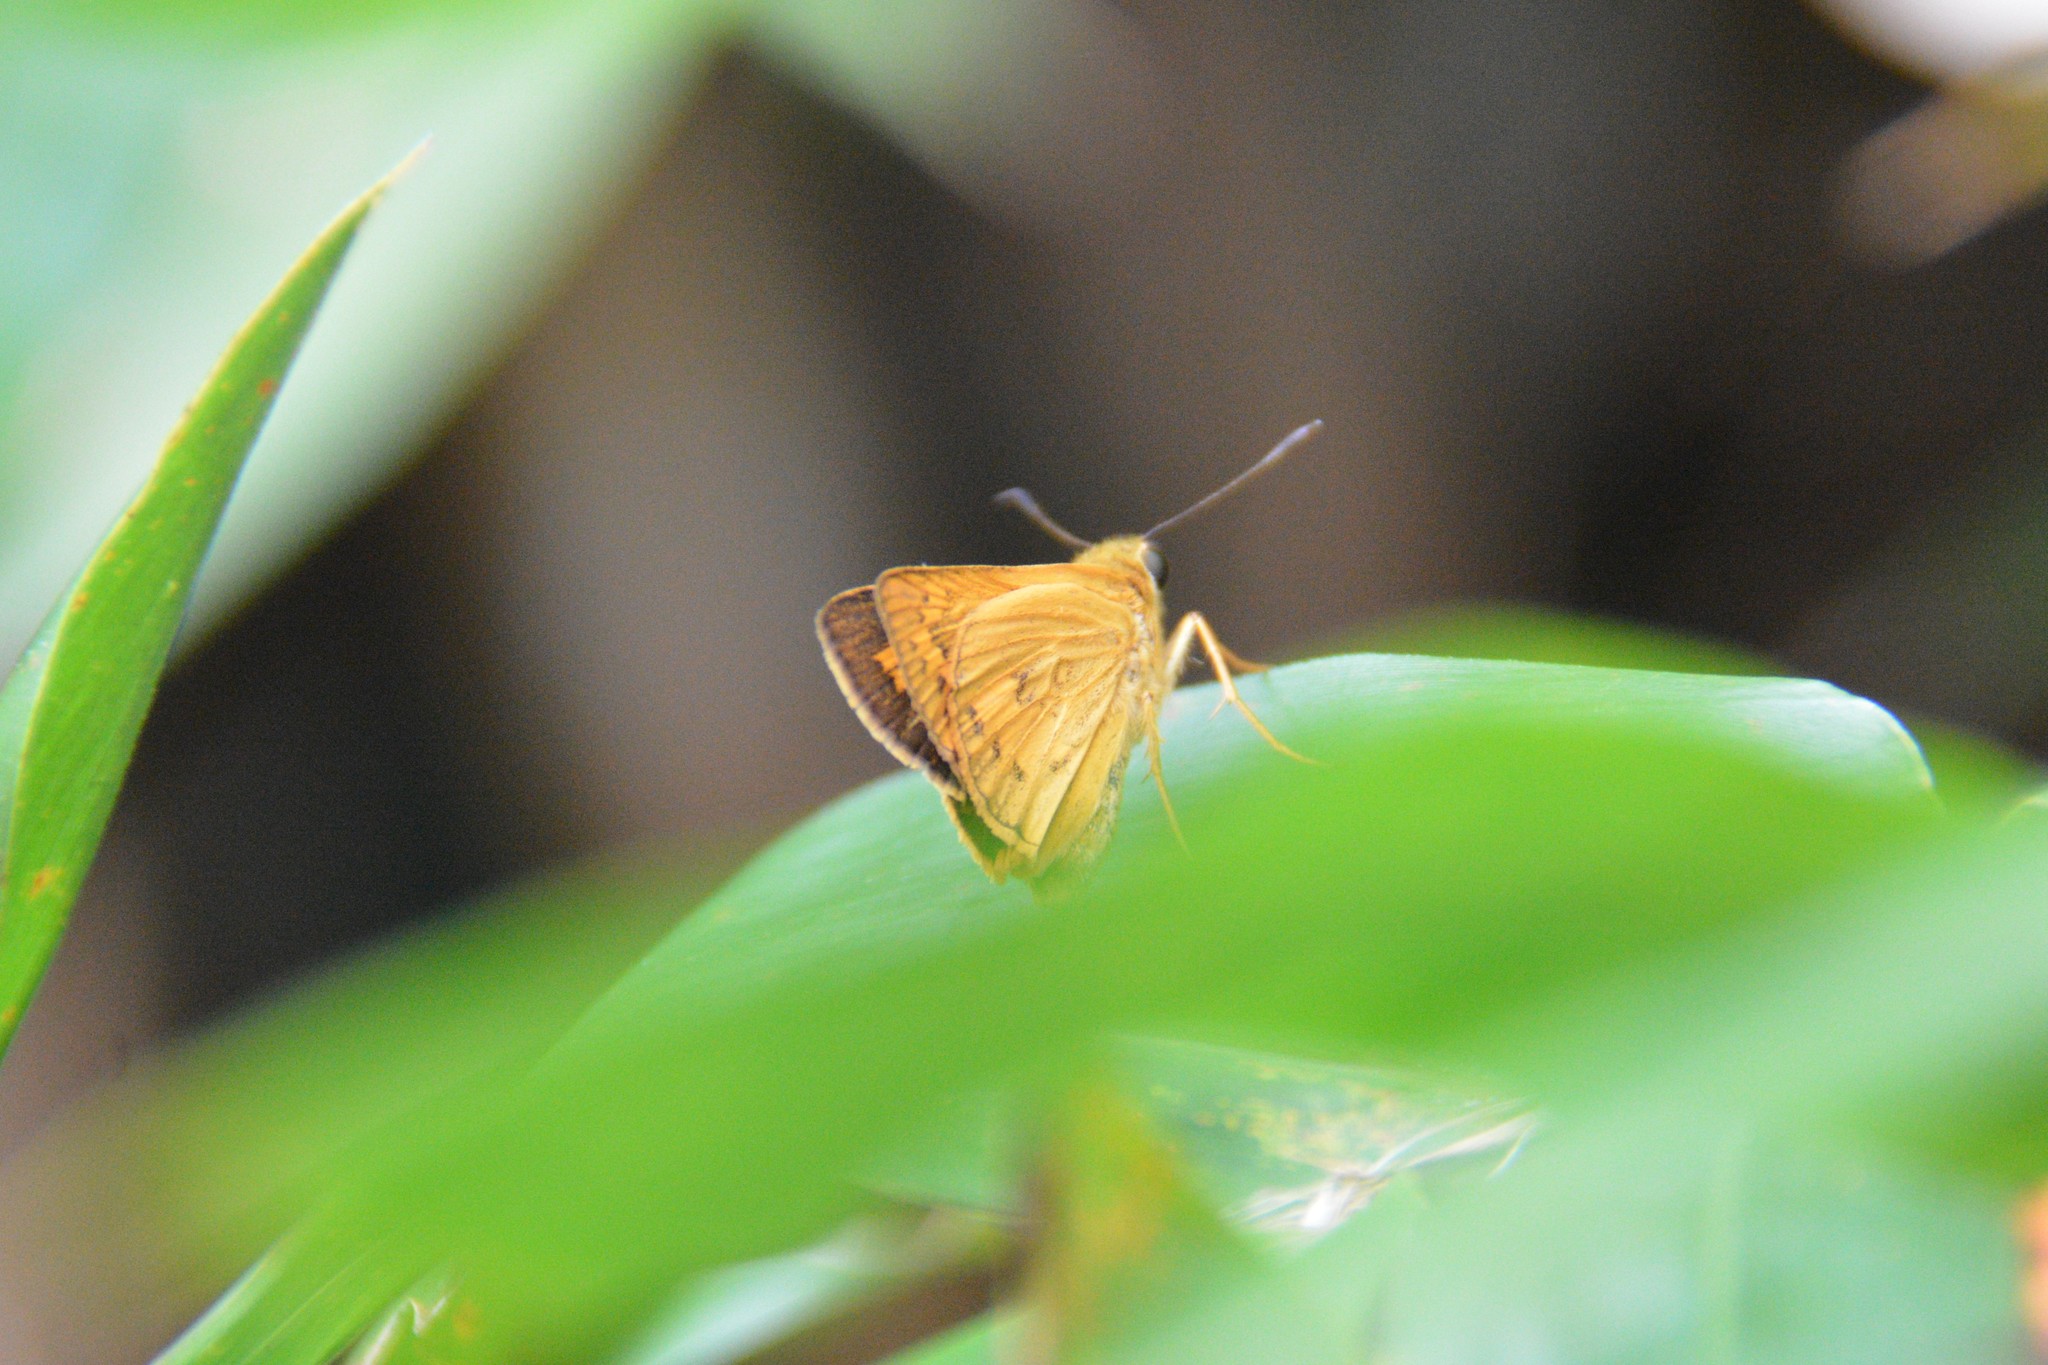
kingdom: Animalia
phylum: Arthropoda
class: Insecta
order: Lepidoptera
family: Hesperiidae
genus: Telicota
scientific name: Telicota ohara
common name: Dark palm dart
